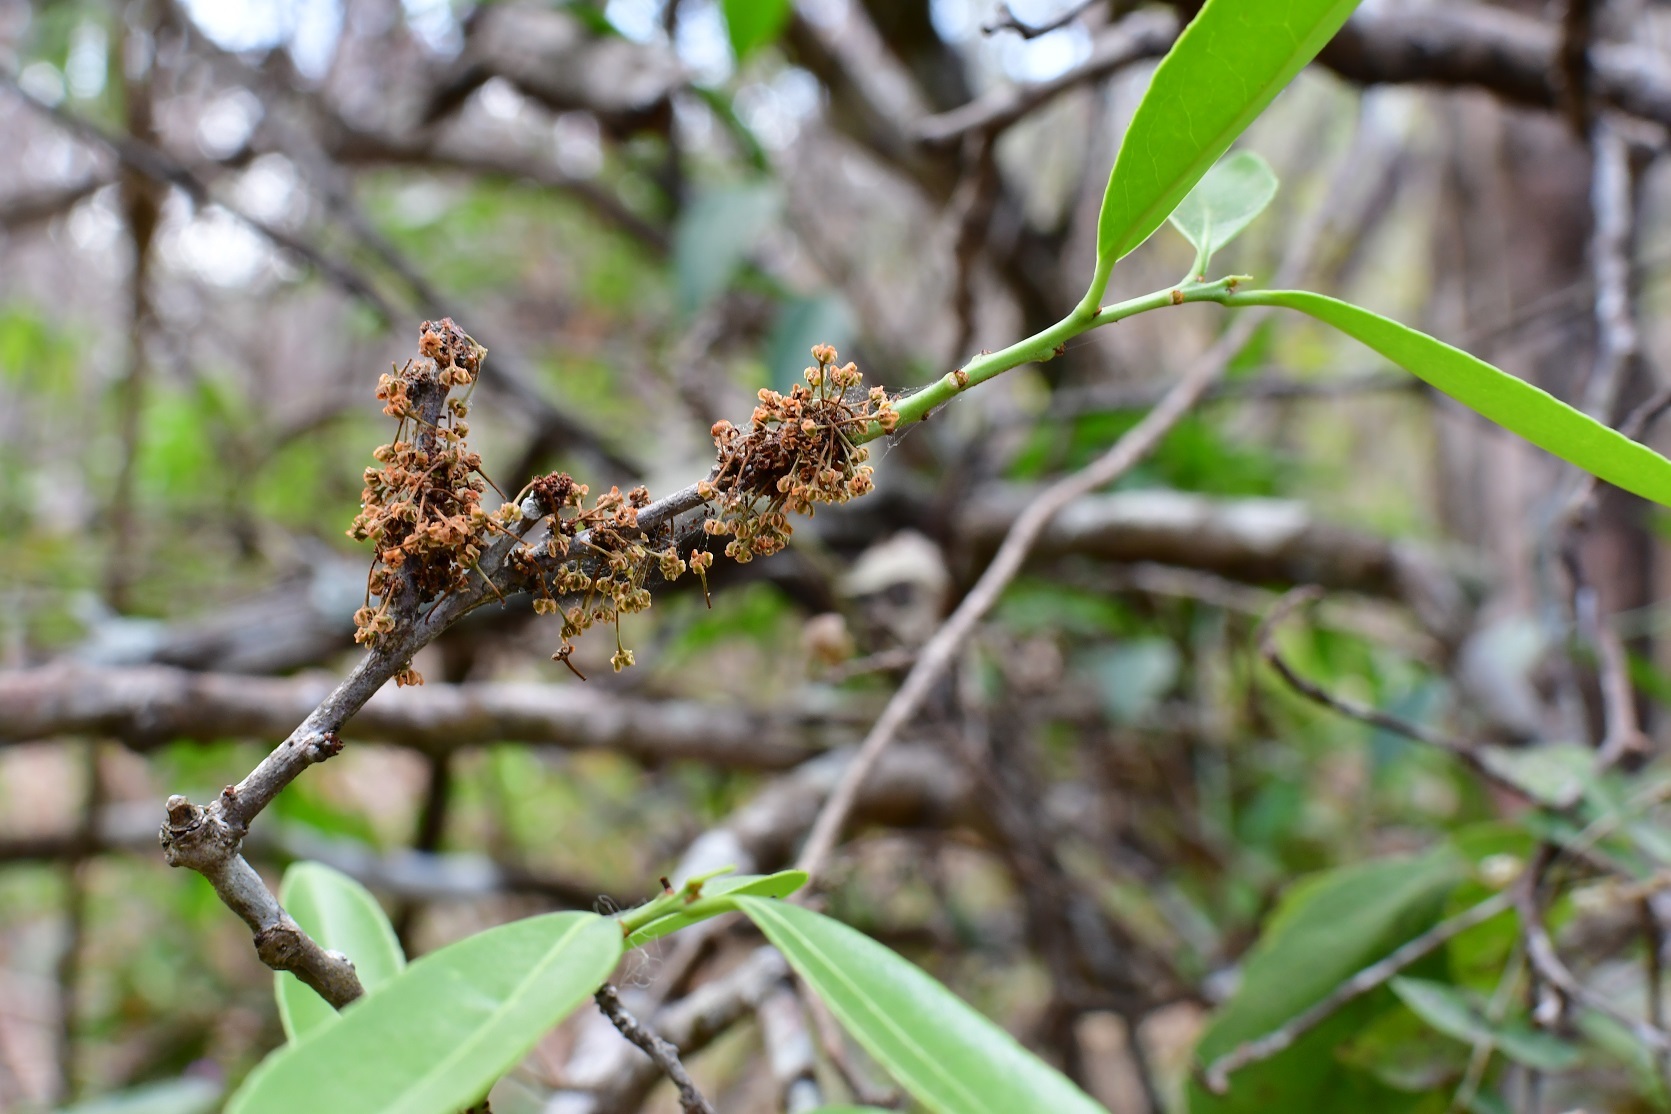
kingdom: Plantae
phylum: Tracheophyta
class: Magnoliopsida
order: Celastrales
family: Celastraceae
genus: Monteverdia
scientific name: Monteverdia stipitata
